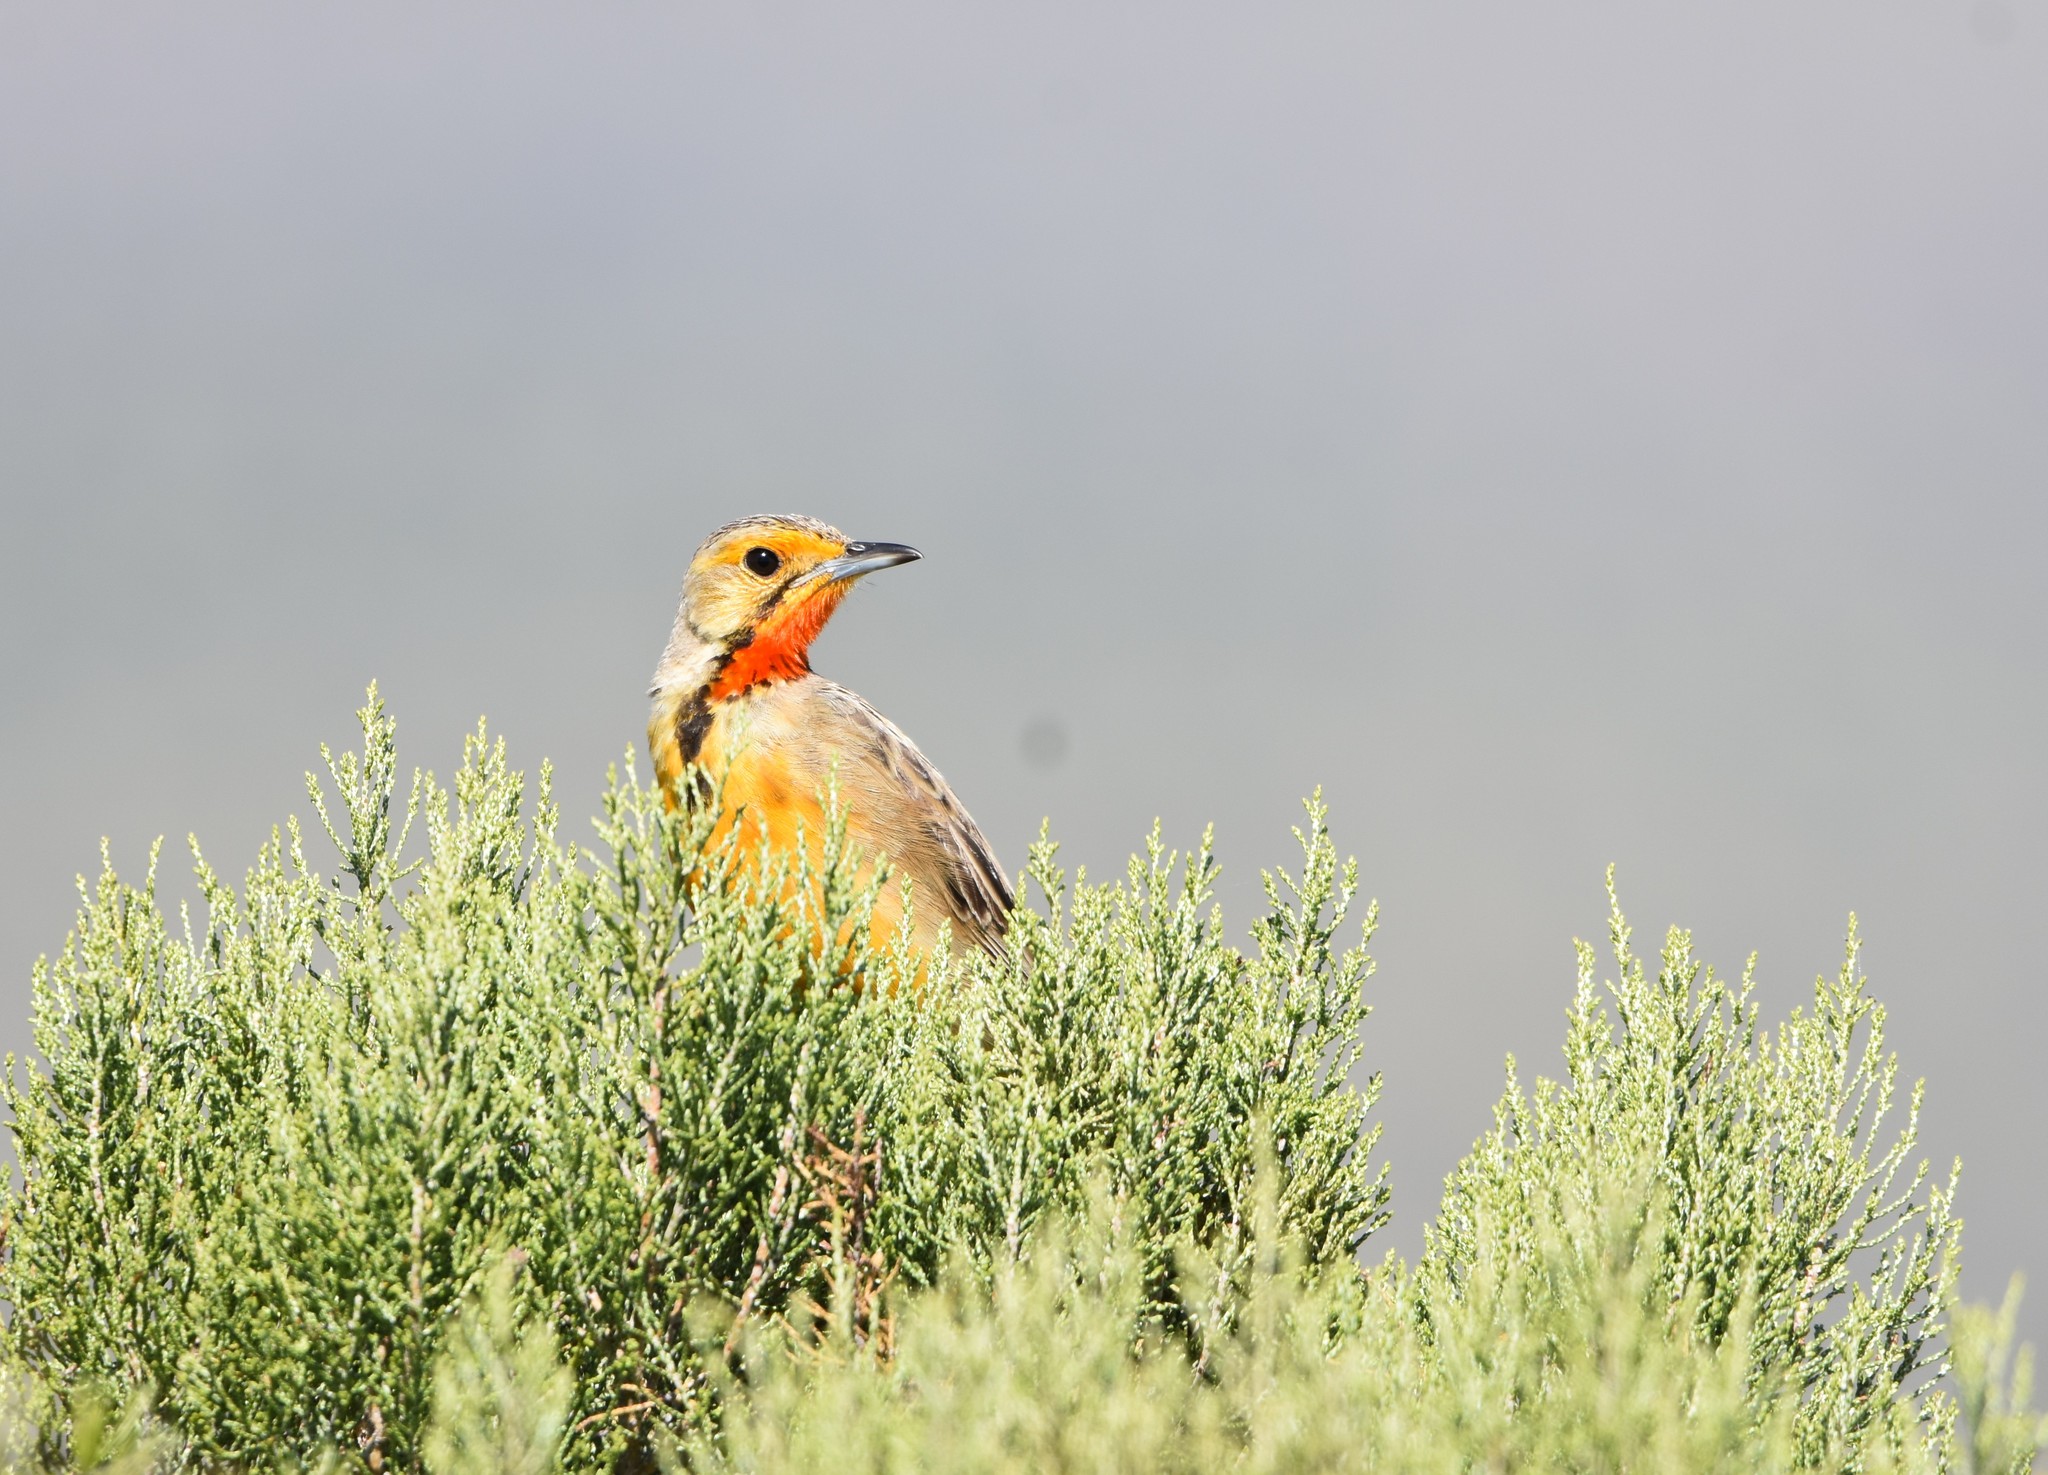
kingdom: Animalia
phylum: Chordata
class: Aves
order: Passeriformes
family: Motacillidae
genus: Macronyx
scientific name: Macronyx capensis
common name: Cape longclaw
